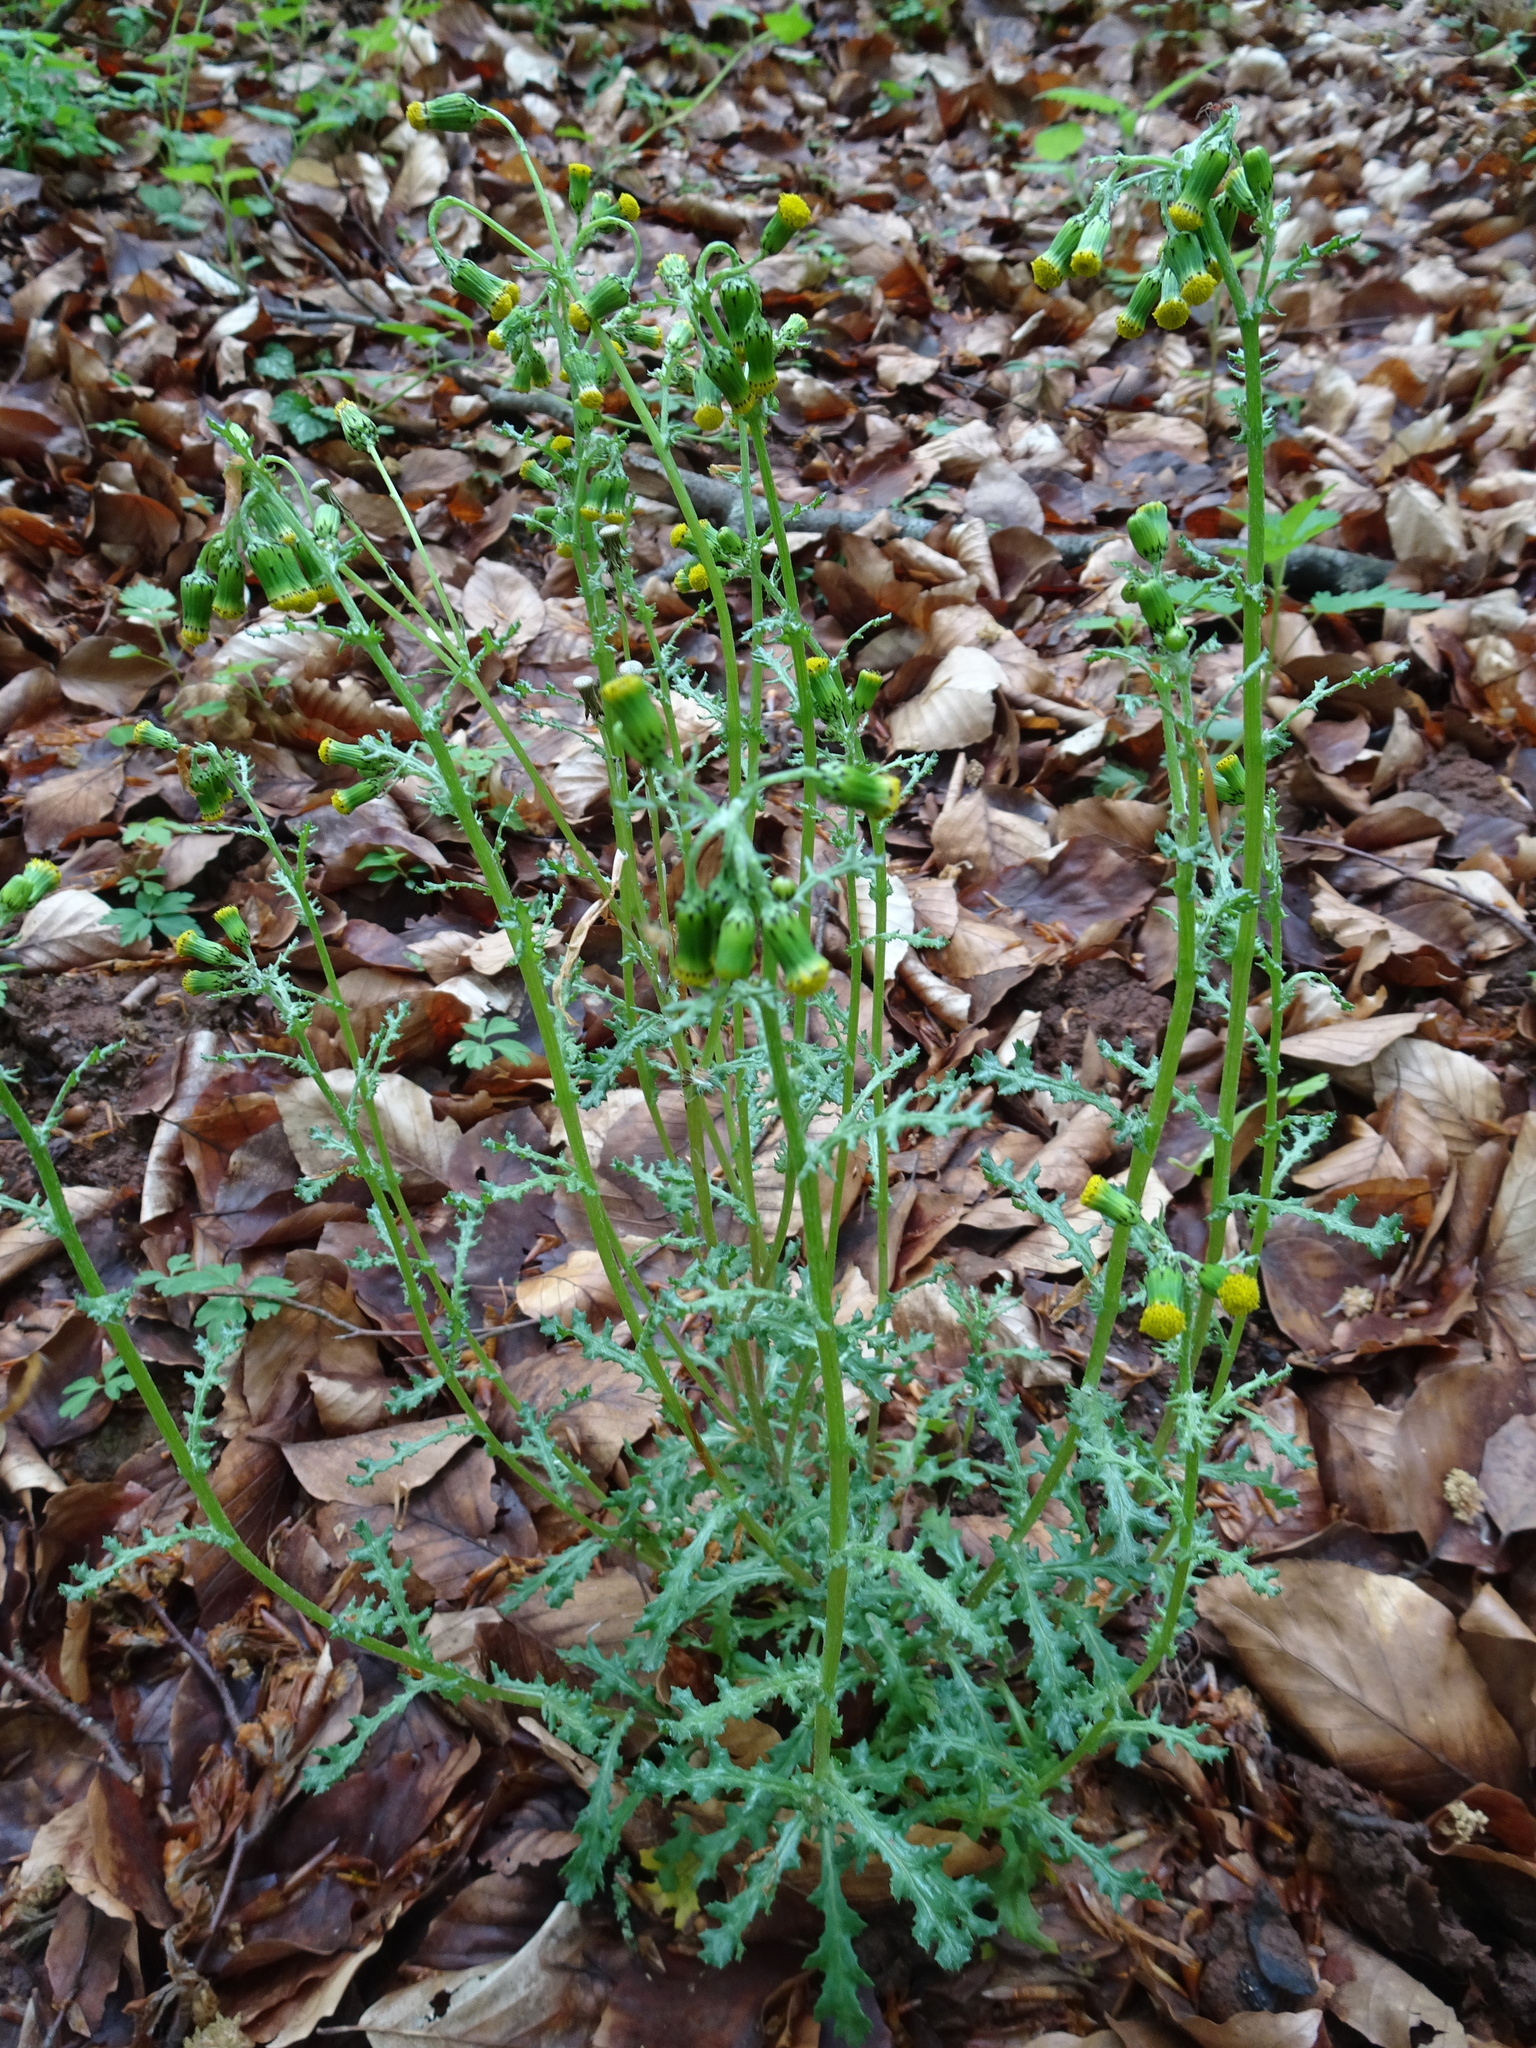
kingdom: Plantae
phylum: Tracheophyta
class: Magnoliopsida
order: Asterales
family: Asteraceae
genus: Senecio
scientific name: Senecio vulgaris
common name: Old-man-in-the-spring
